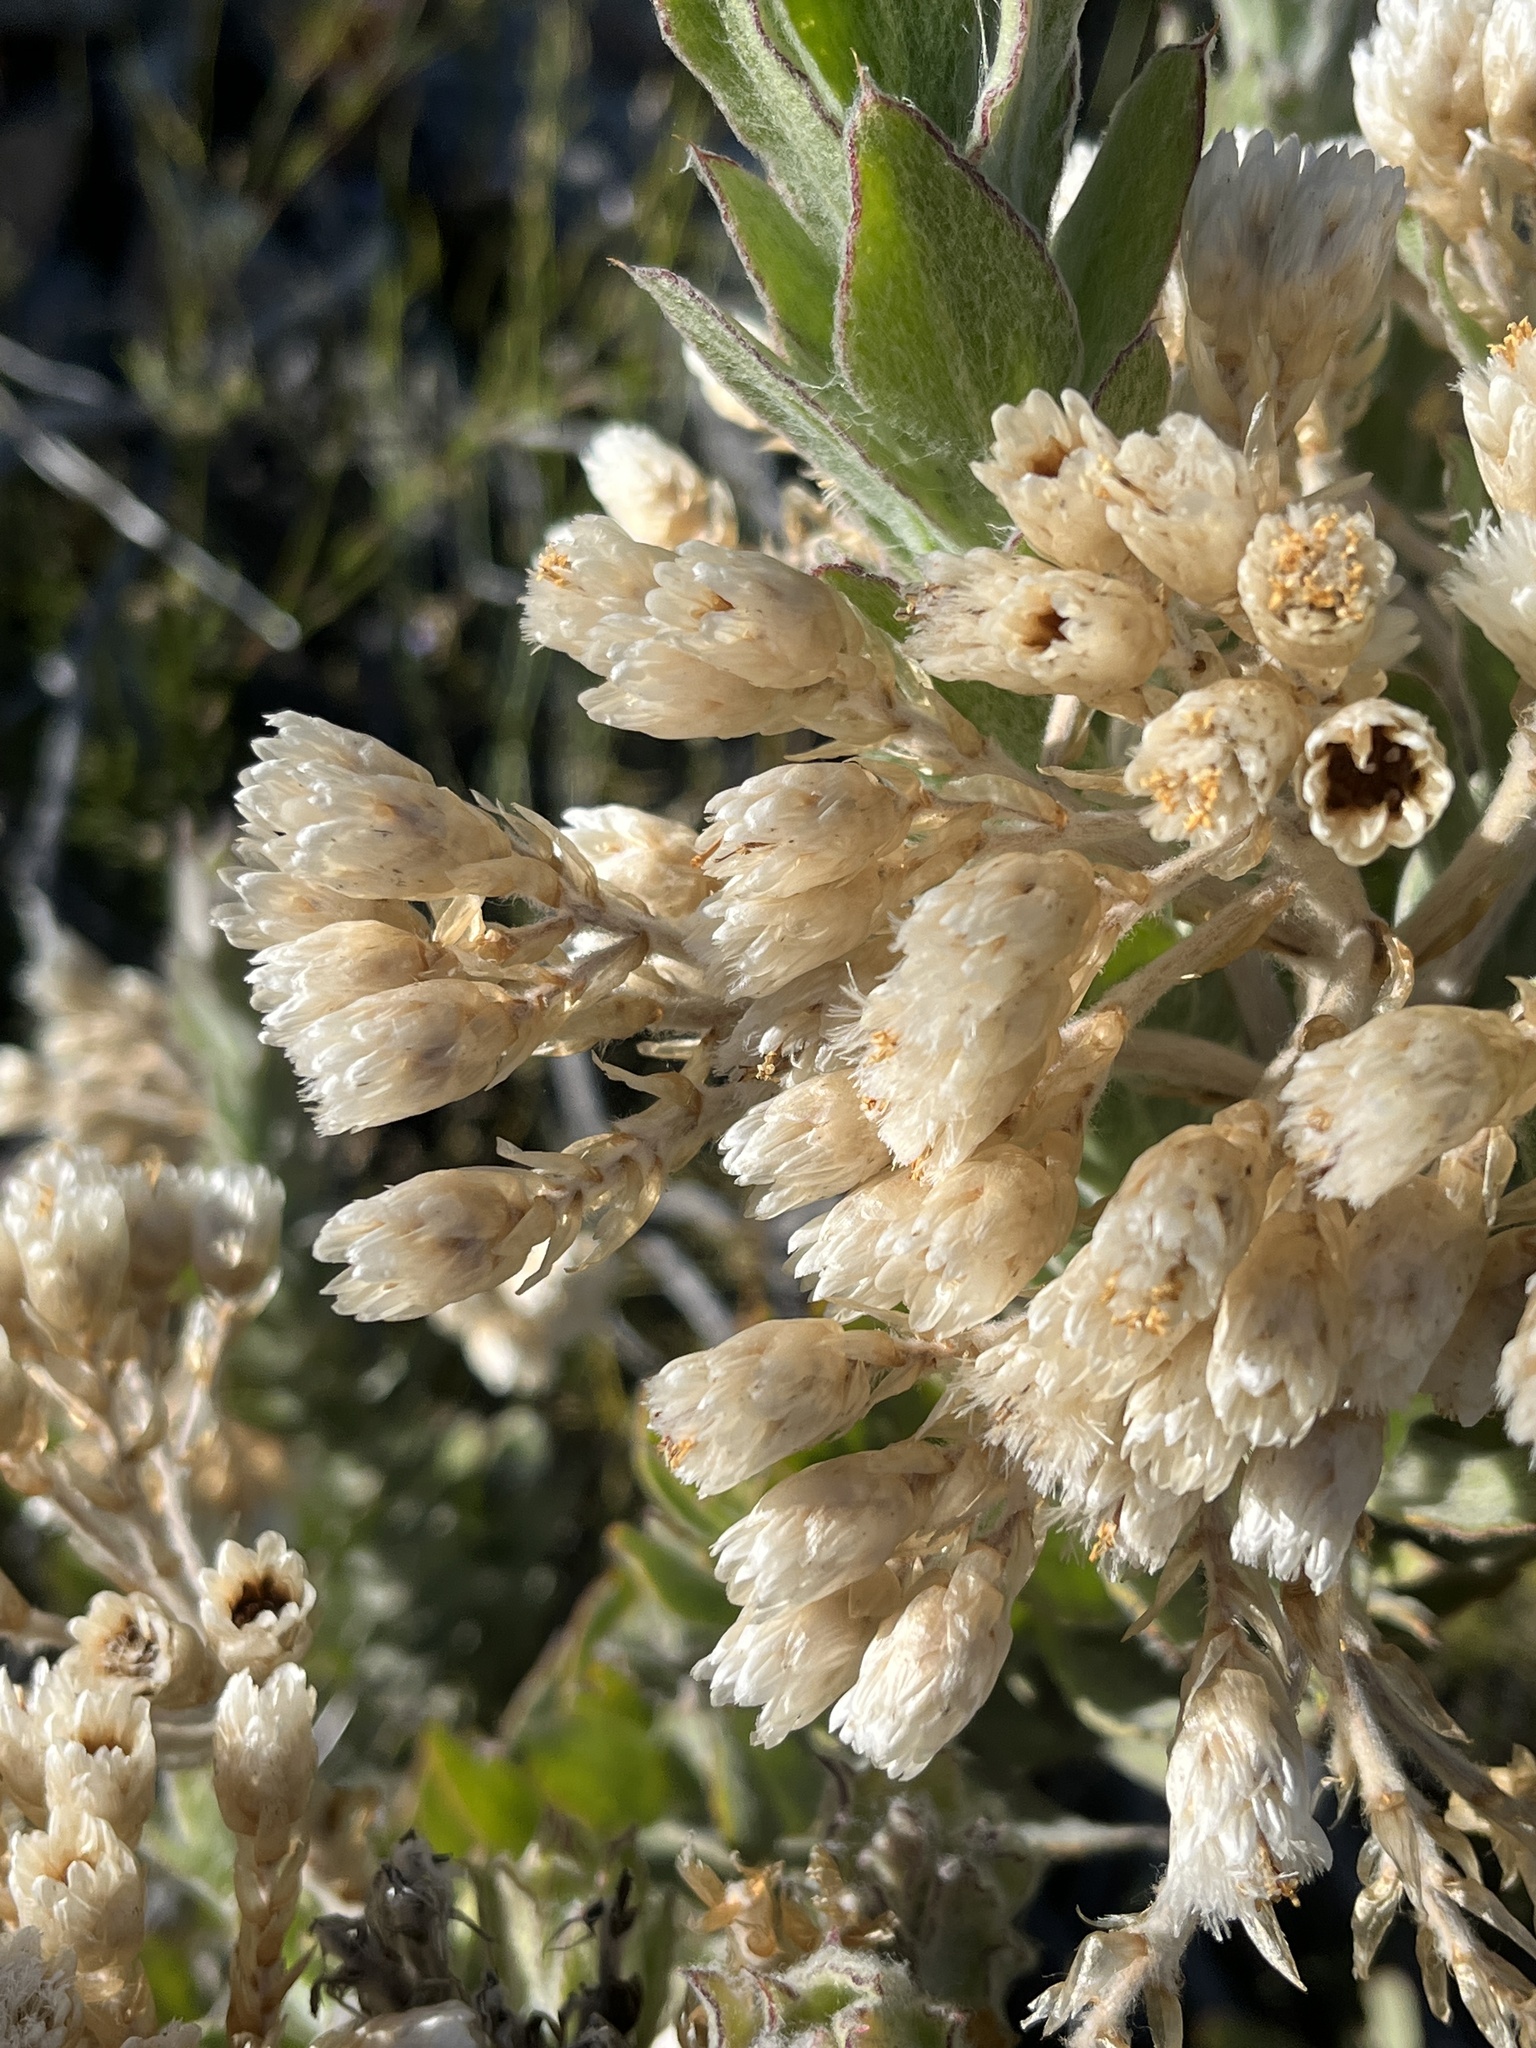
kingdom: Plantae
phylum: Tracheophyta
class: Magnoliopsida
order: Asterales
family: Asteraceae
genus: Syncarpha
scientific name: Syncarpha milleflora
